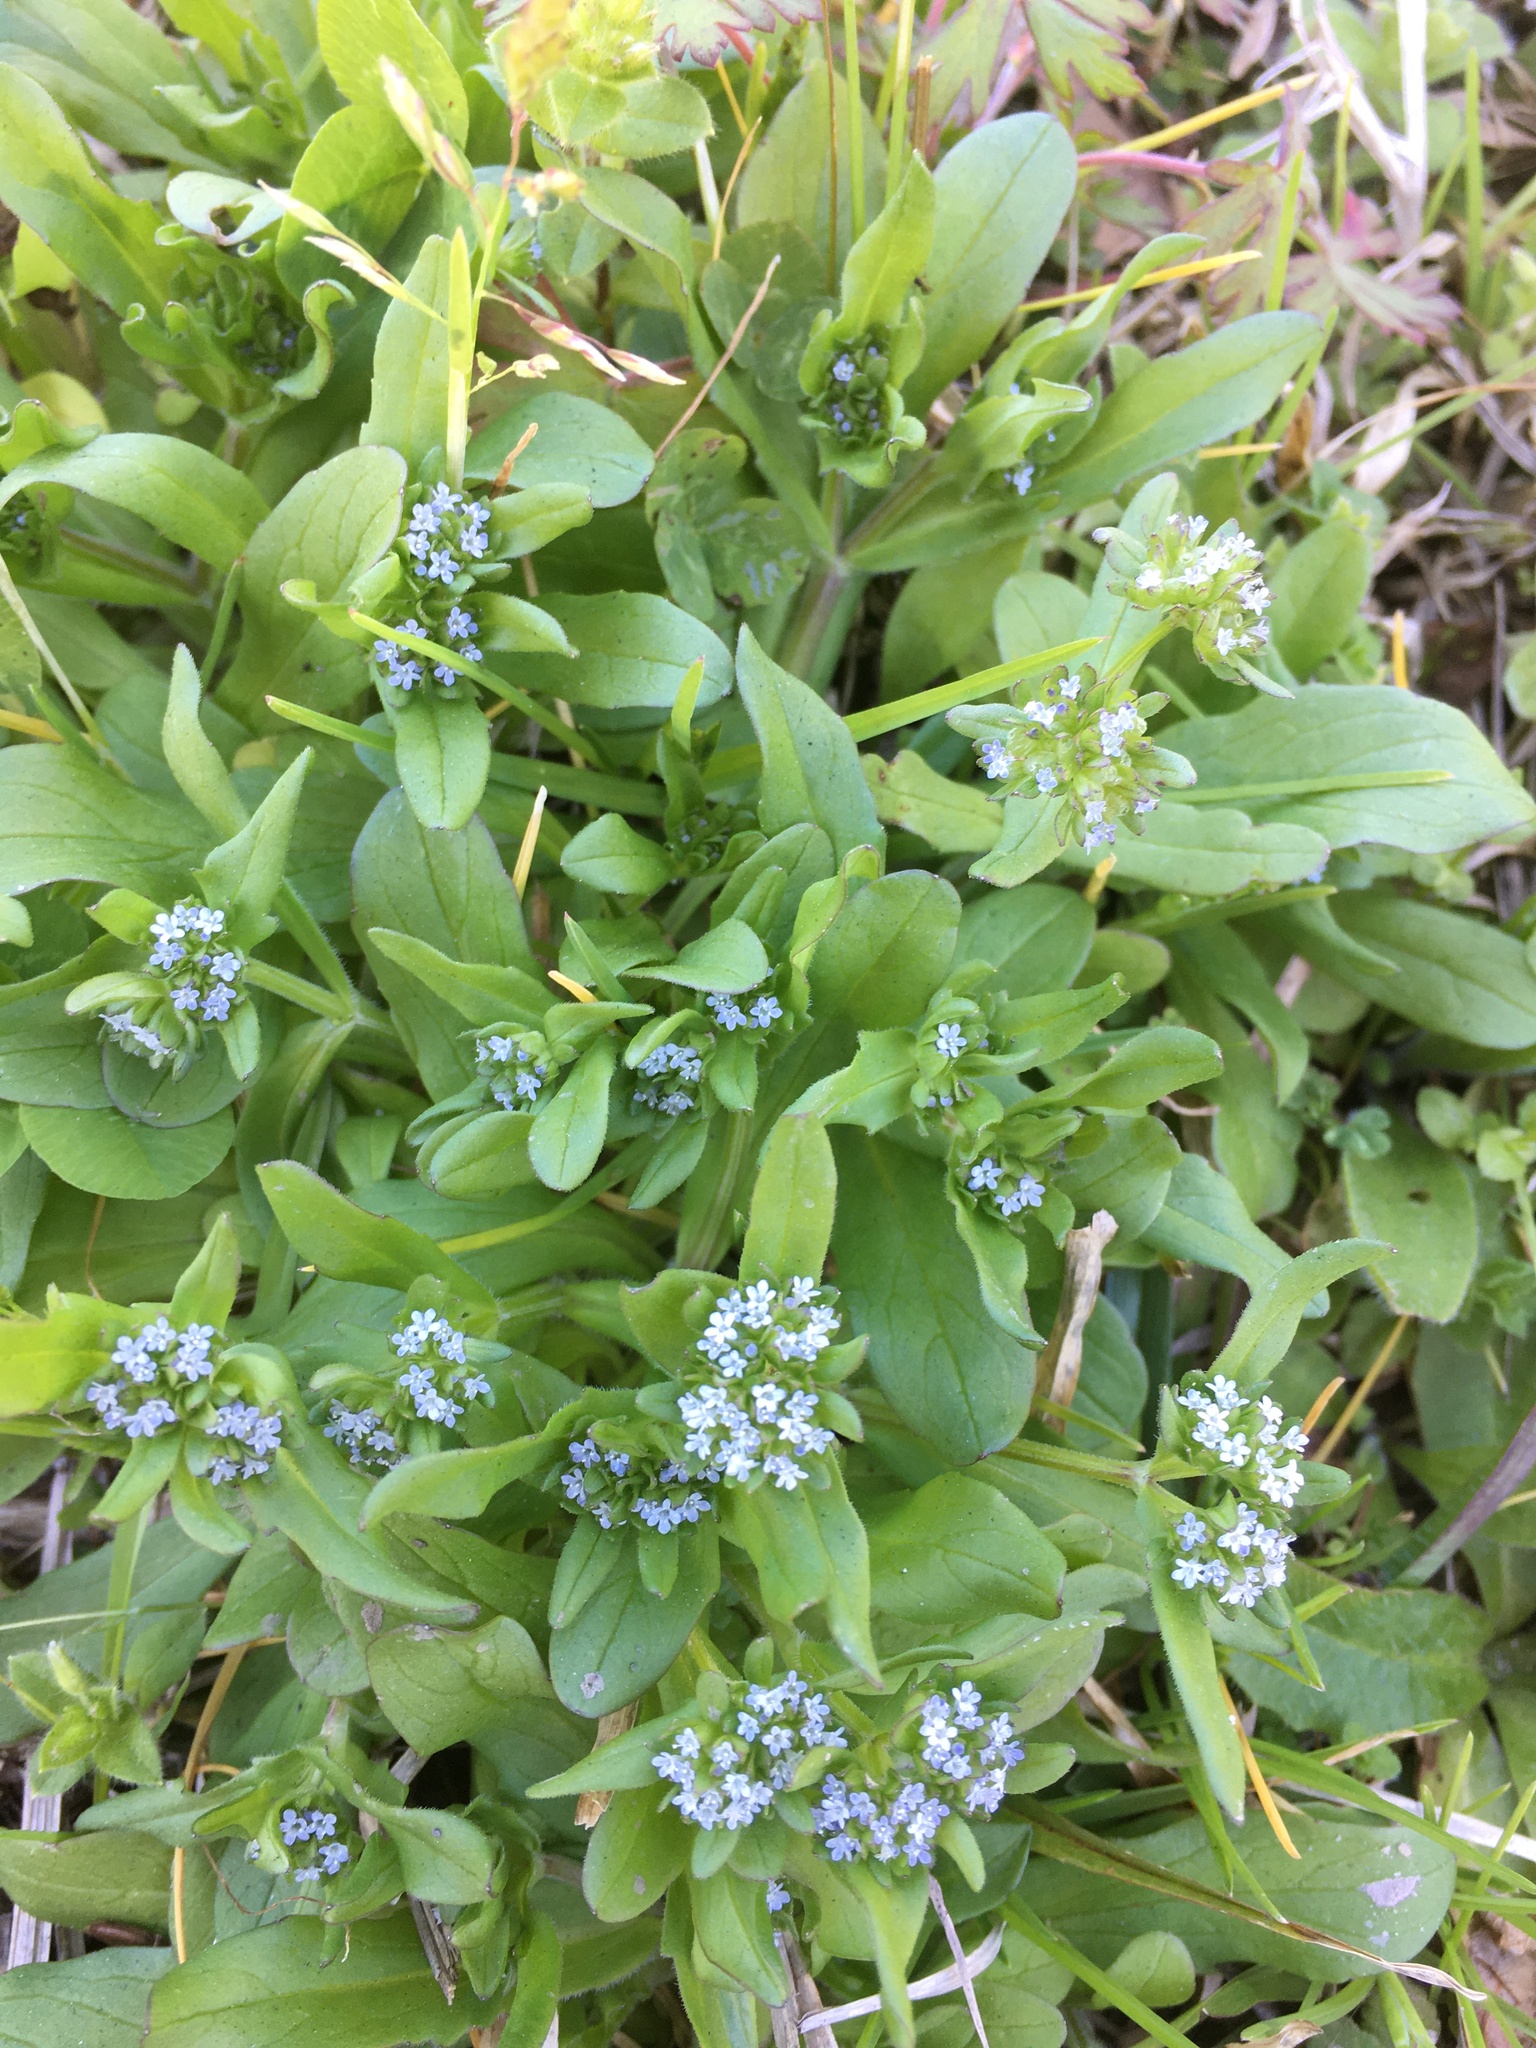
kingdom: Plantae
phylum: Tracheophyta
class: Magnoliopsida
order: Dipsacales
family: Caprifoliaceae
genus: Valerianella
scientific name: Valerianella locusta
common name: Common cornsalad
